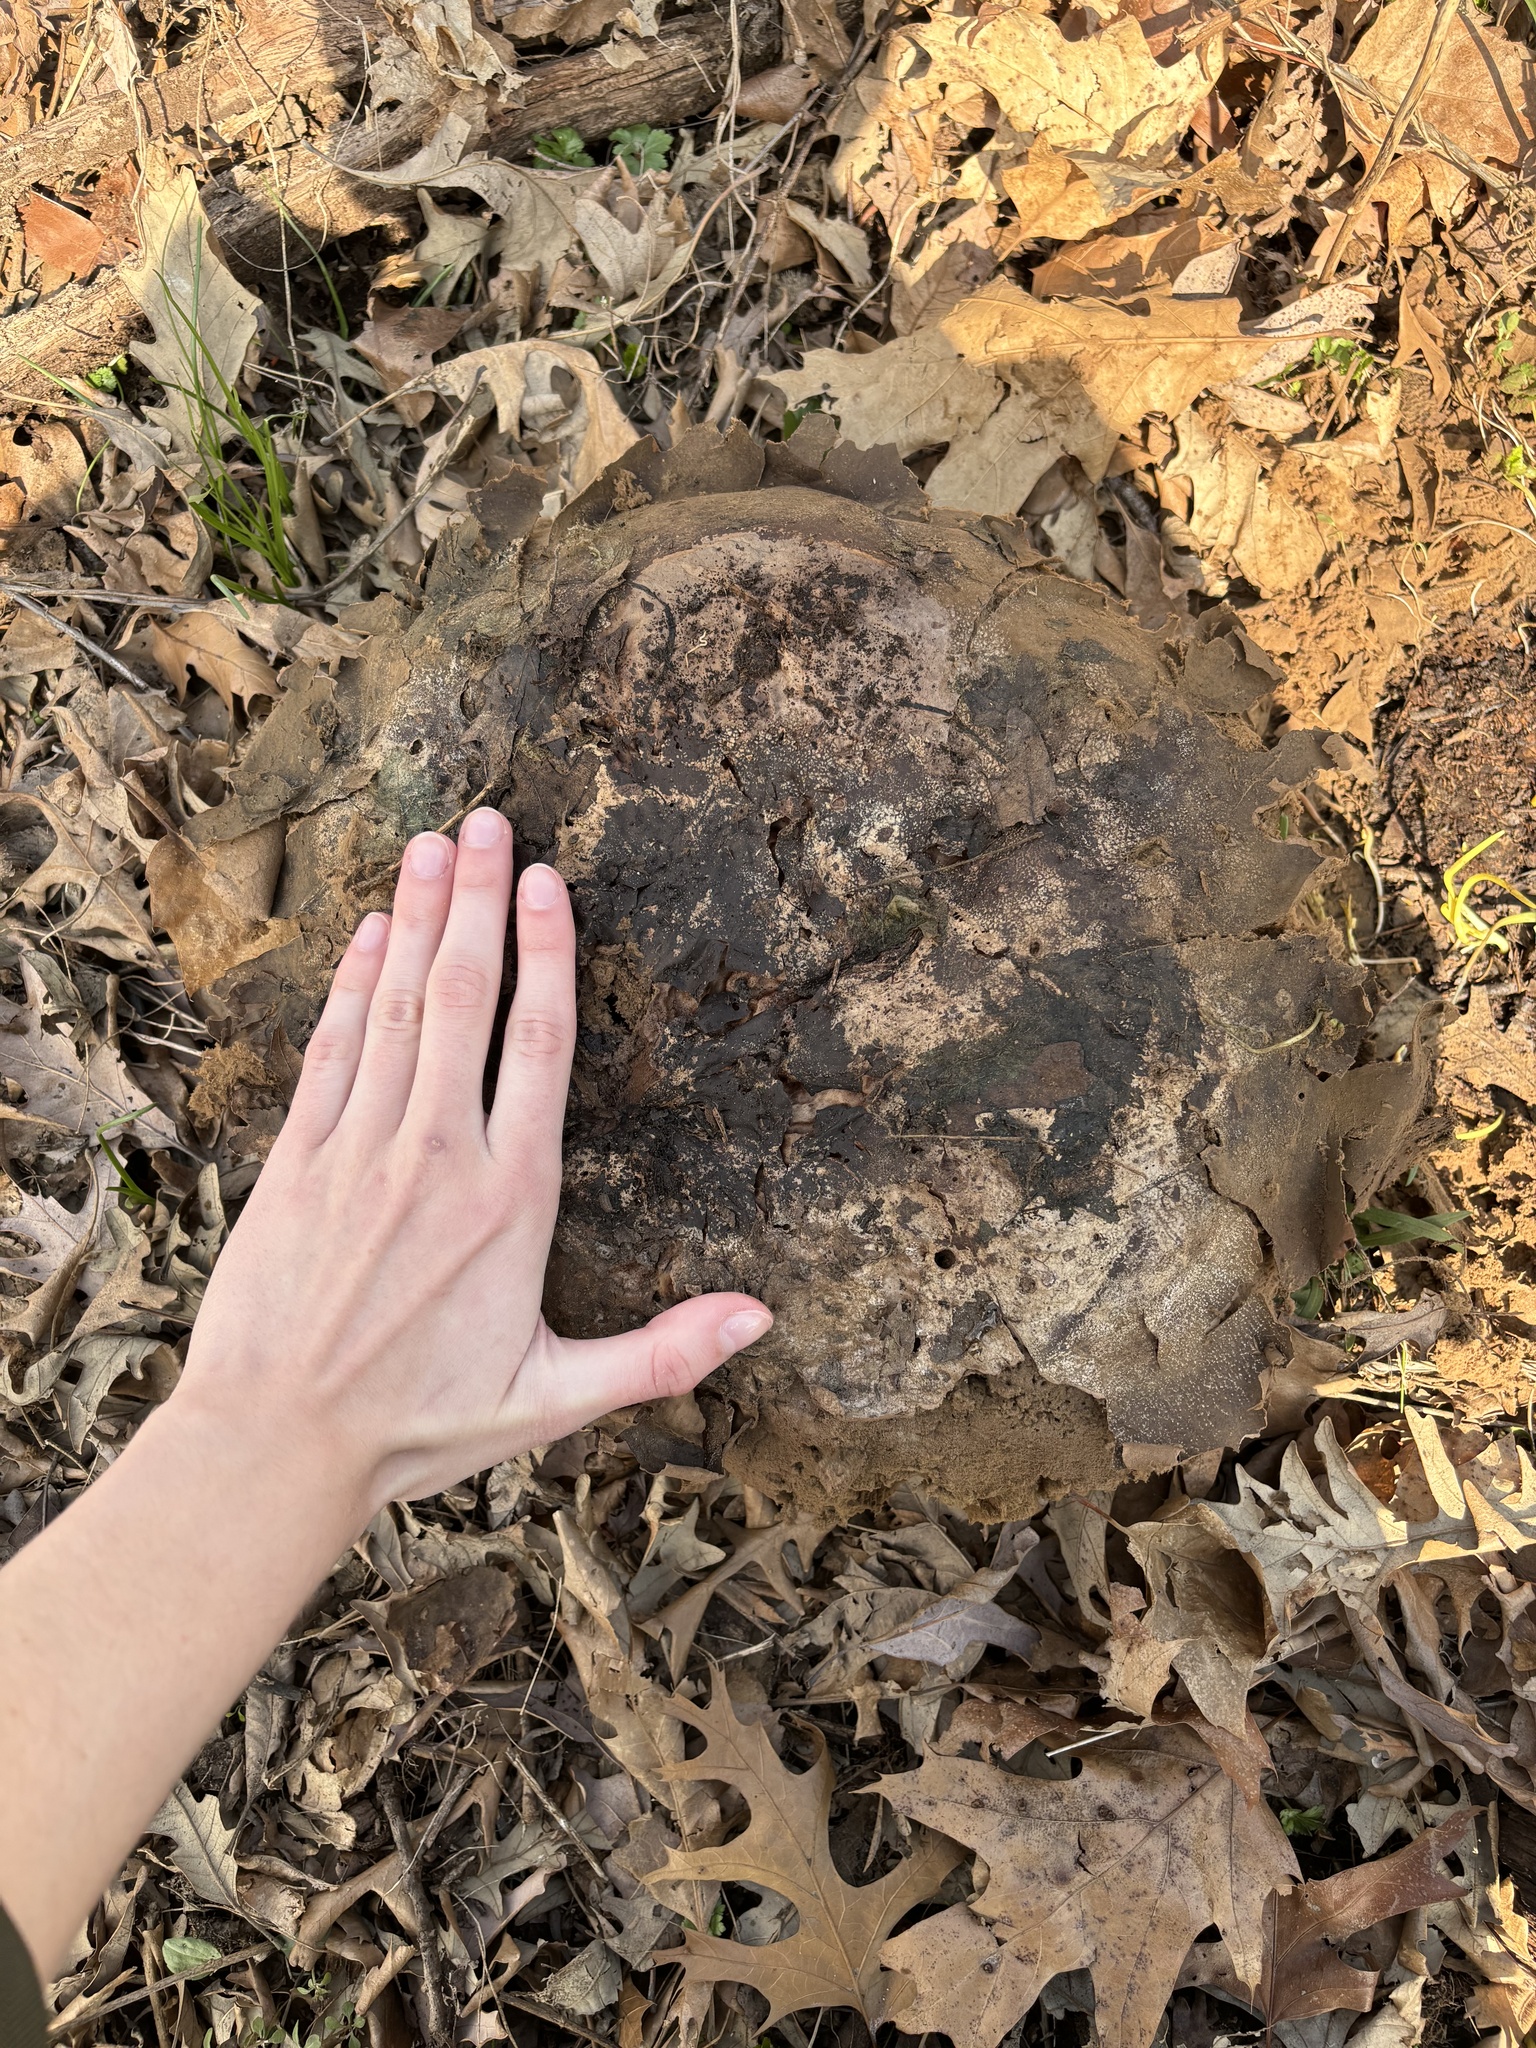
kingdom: Fungi
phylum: Basidiomycota
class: Agaricomycetes
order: Agaricales
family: Lycoperdaceae
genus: Calvatia
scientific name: Calvatia gigantea
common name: Giant puffball
